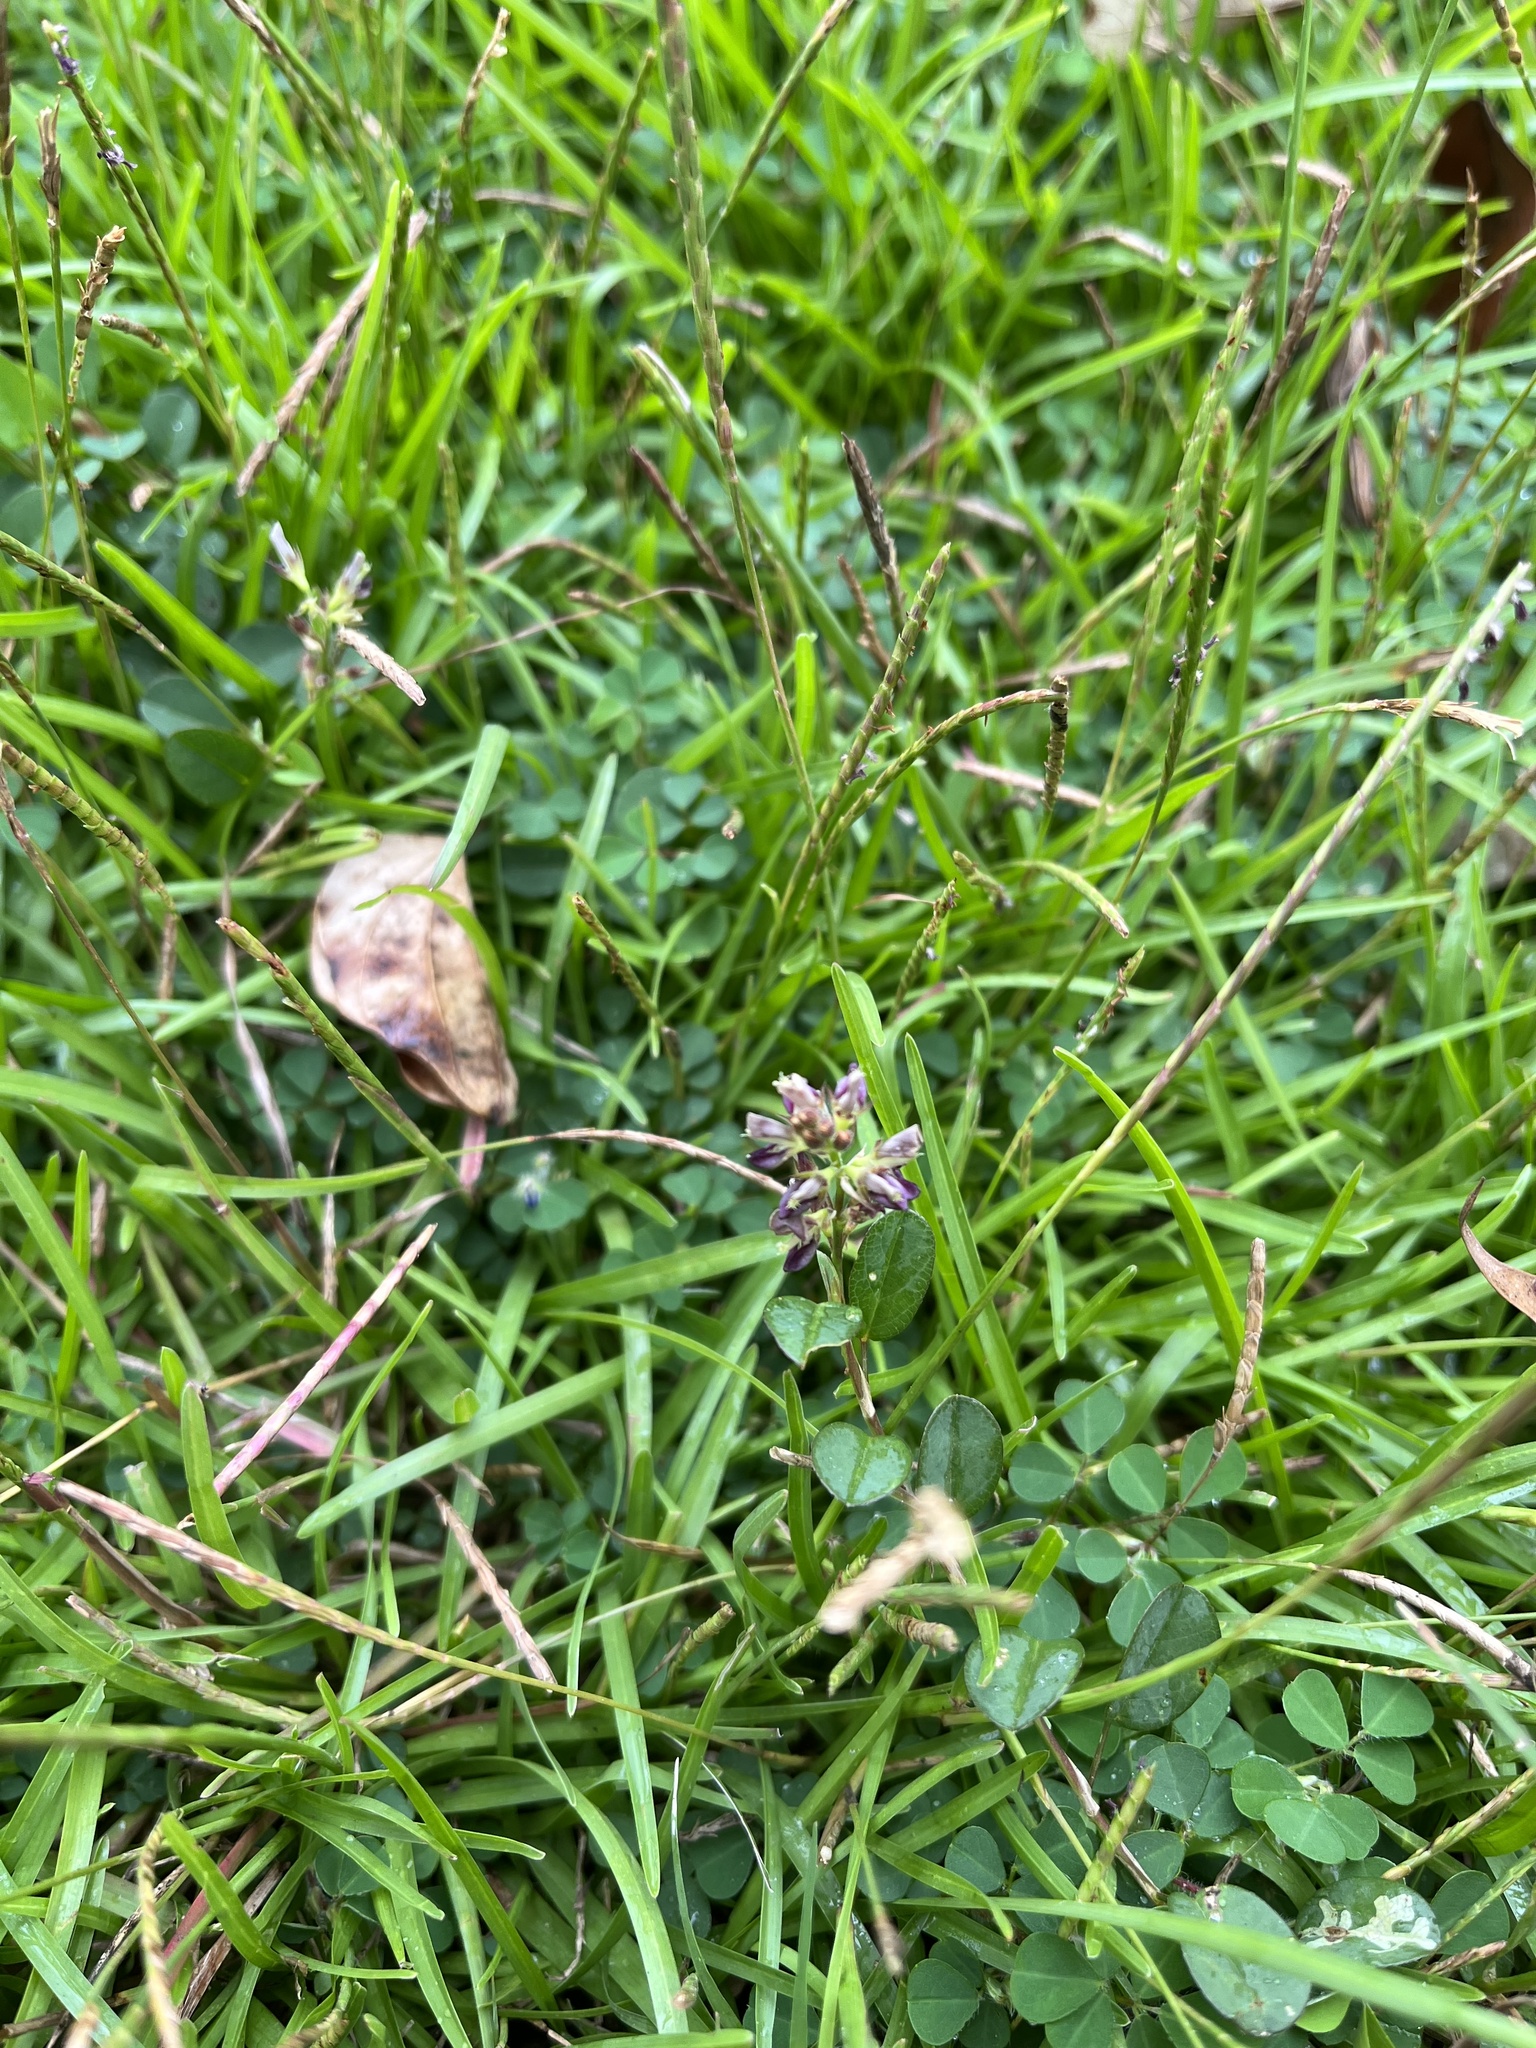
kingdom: Plantae
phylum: Tracheophyta
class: Magnoliopsida
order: Fabales
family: Fabaceae
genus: Alysicarpus
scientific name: Alysicarpus vaginalis
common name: White moneywort
